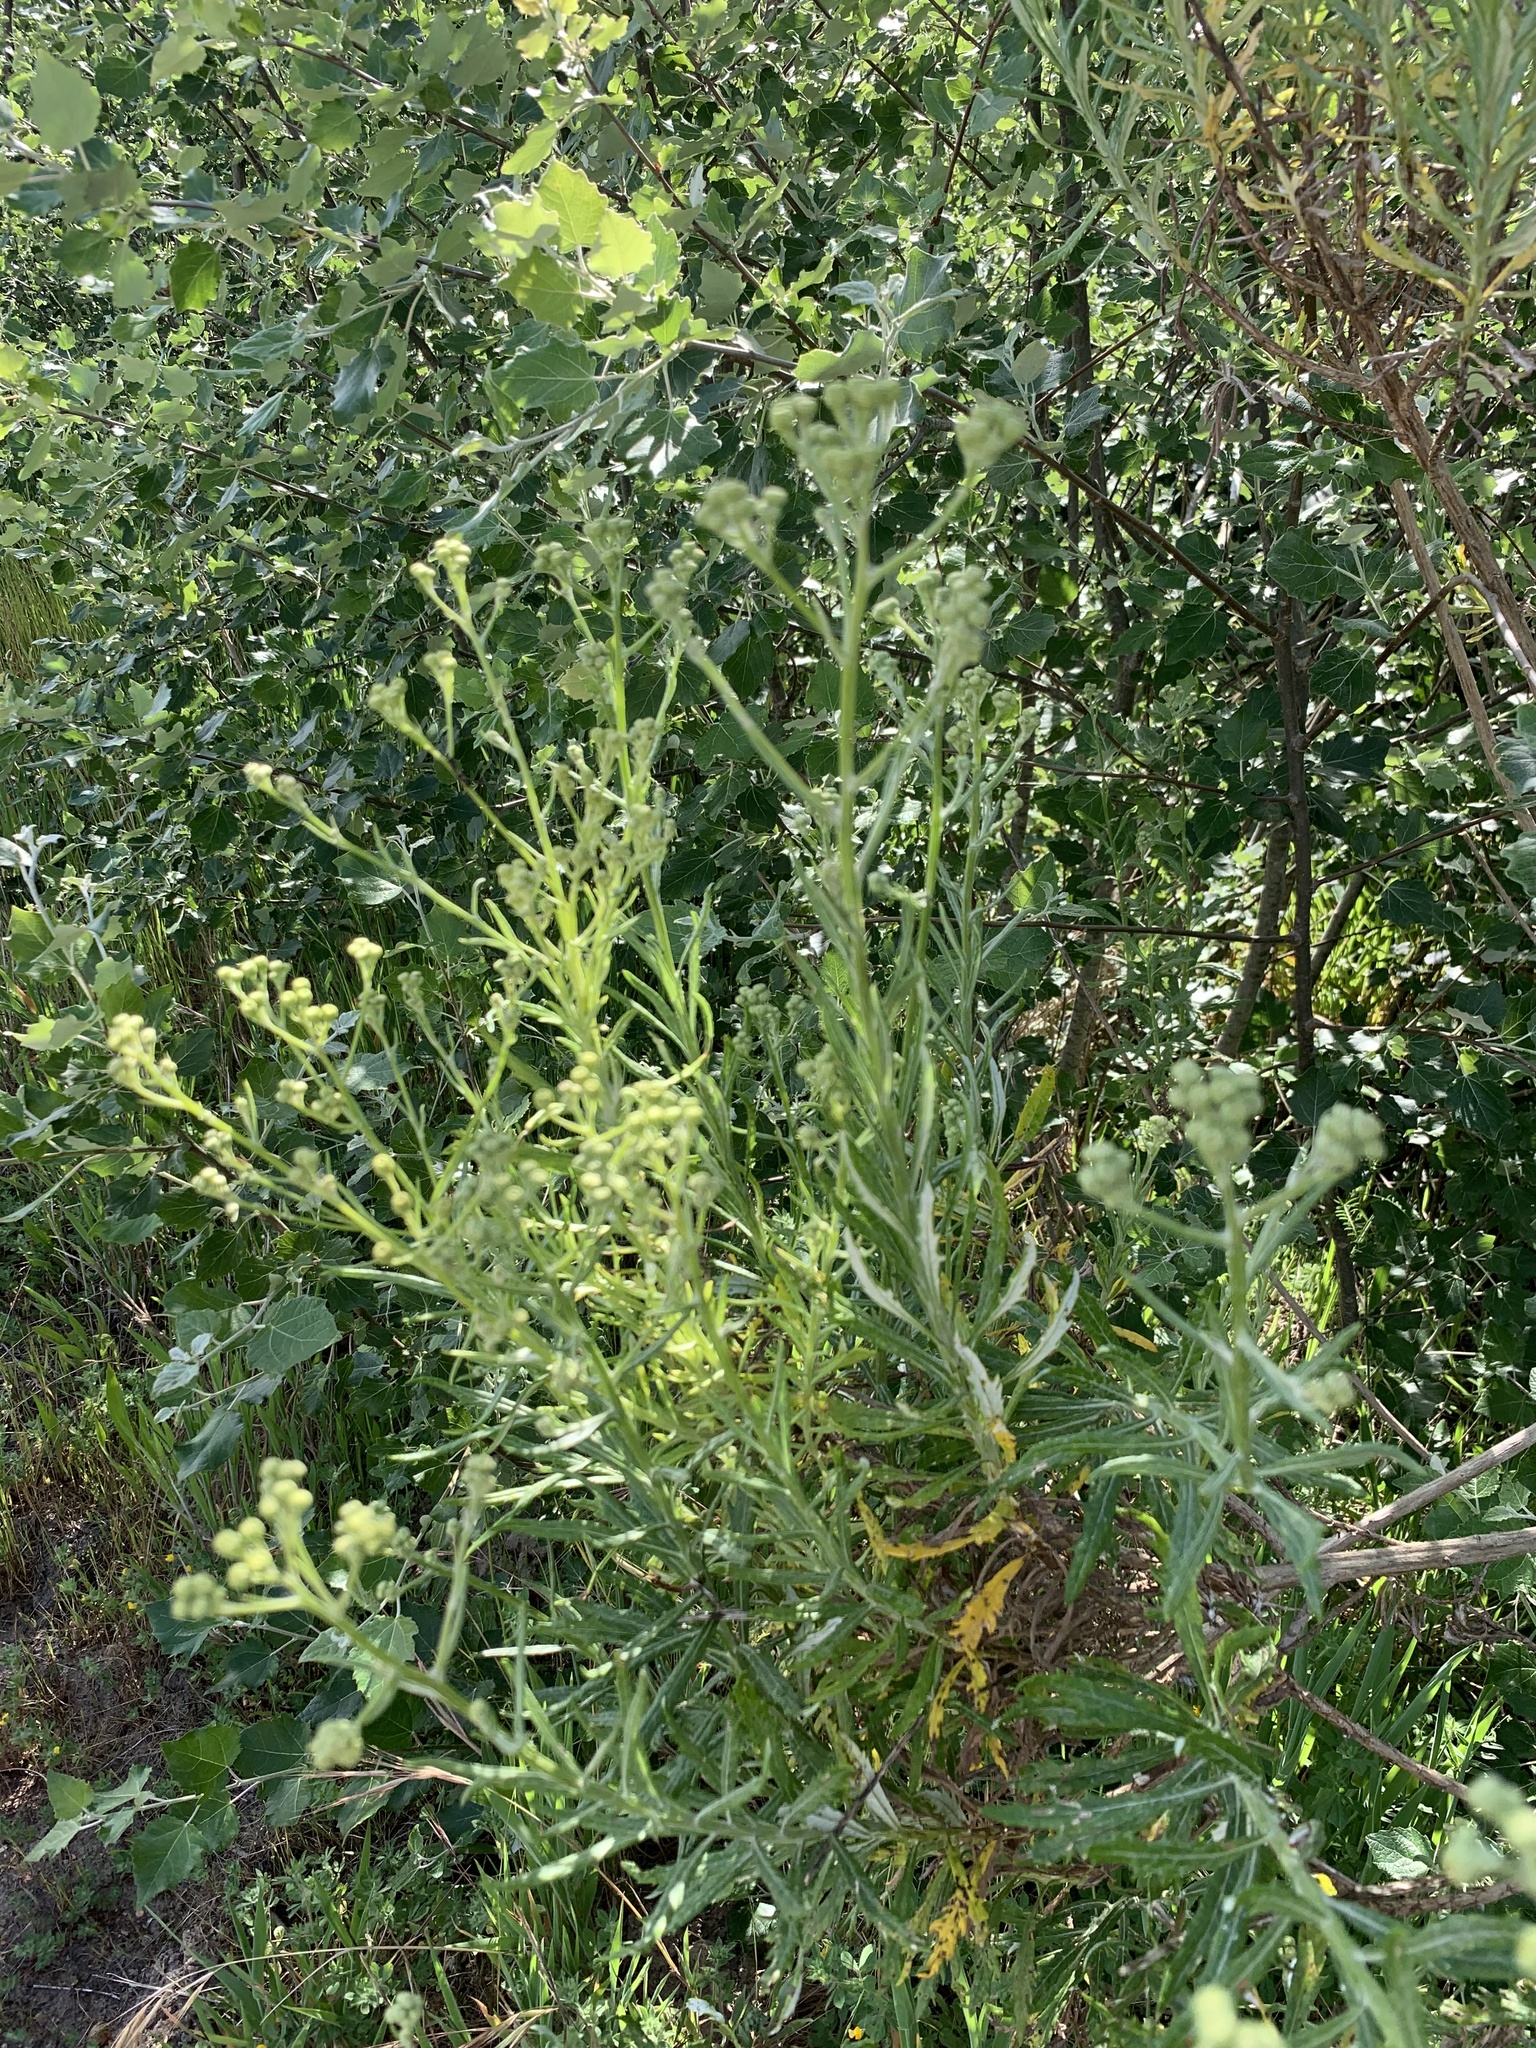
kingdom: Plantae
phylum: Tracheophyta
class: Magnoliopsida
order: Asterales
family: Asteraceae
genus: Senecio
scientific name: Senecio pterophorus
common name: Shoddy ragwort
